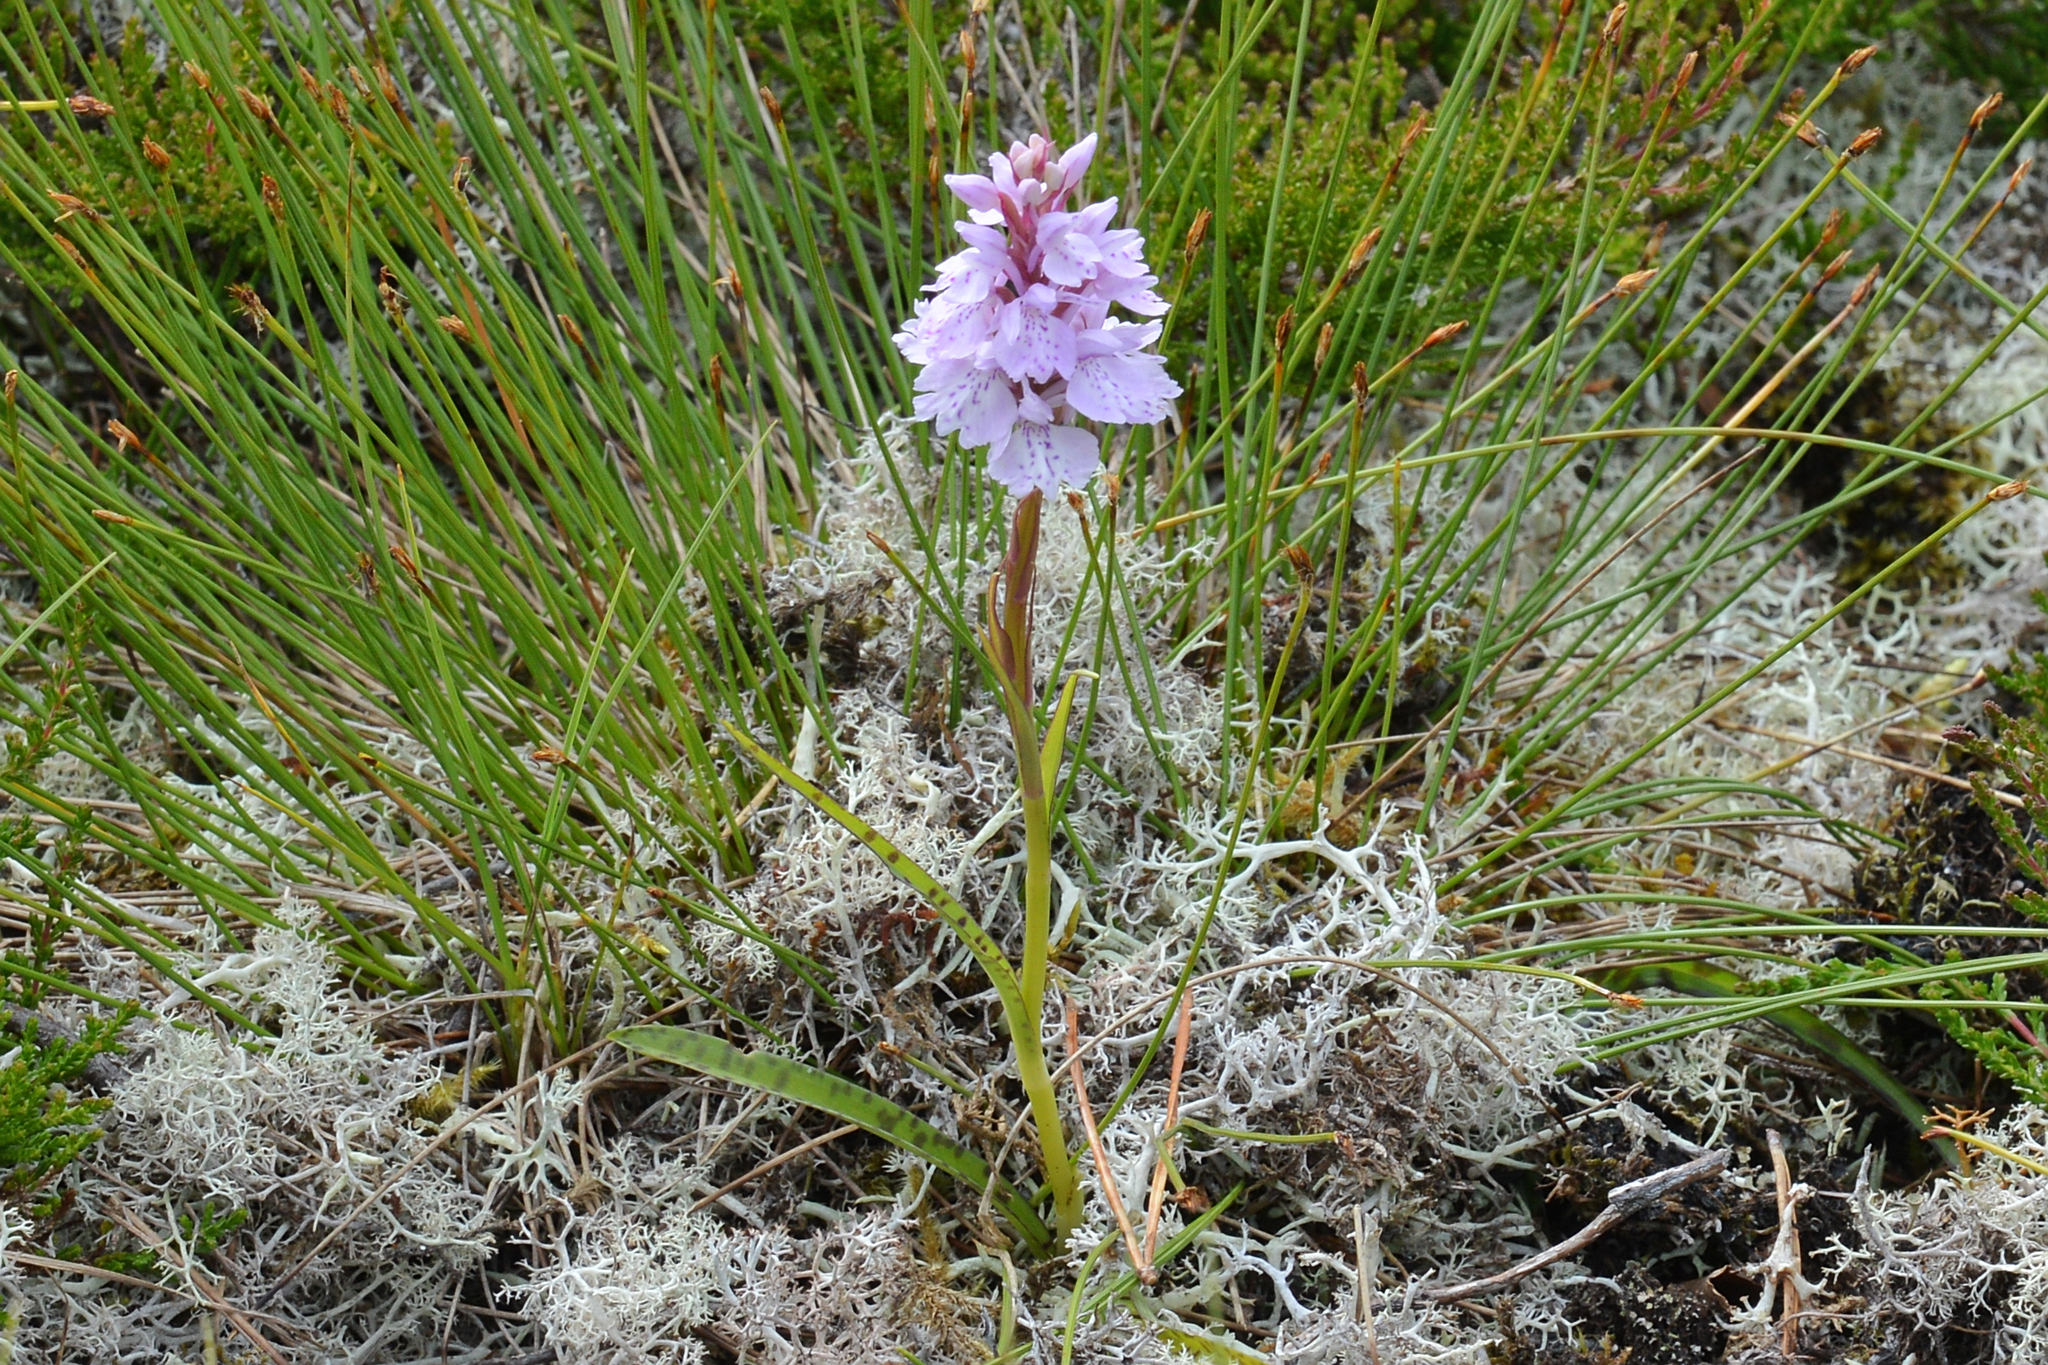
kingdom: Plantae
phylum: Tracheophyta
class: Liliopsida
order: Asparagales
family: Orchidaceae
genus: Dactylorhiza
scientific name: Dactylorhiza maculata
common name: Heath spotted-orchid
